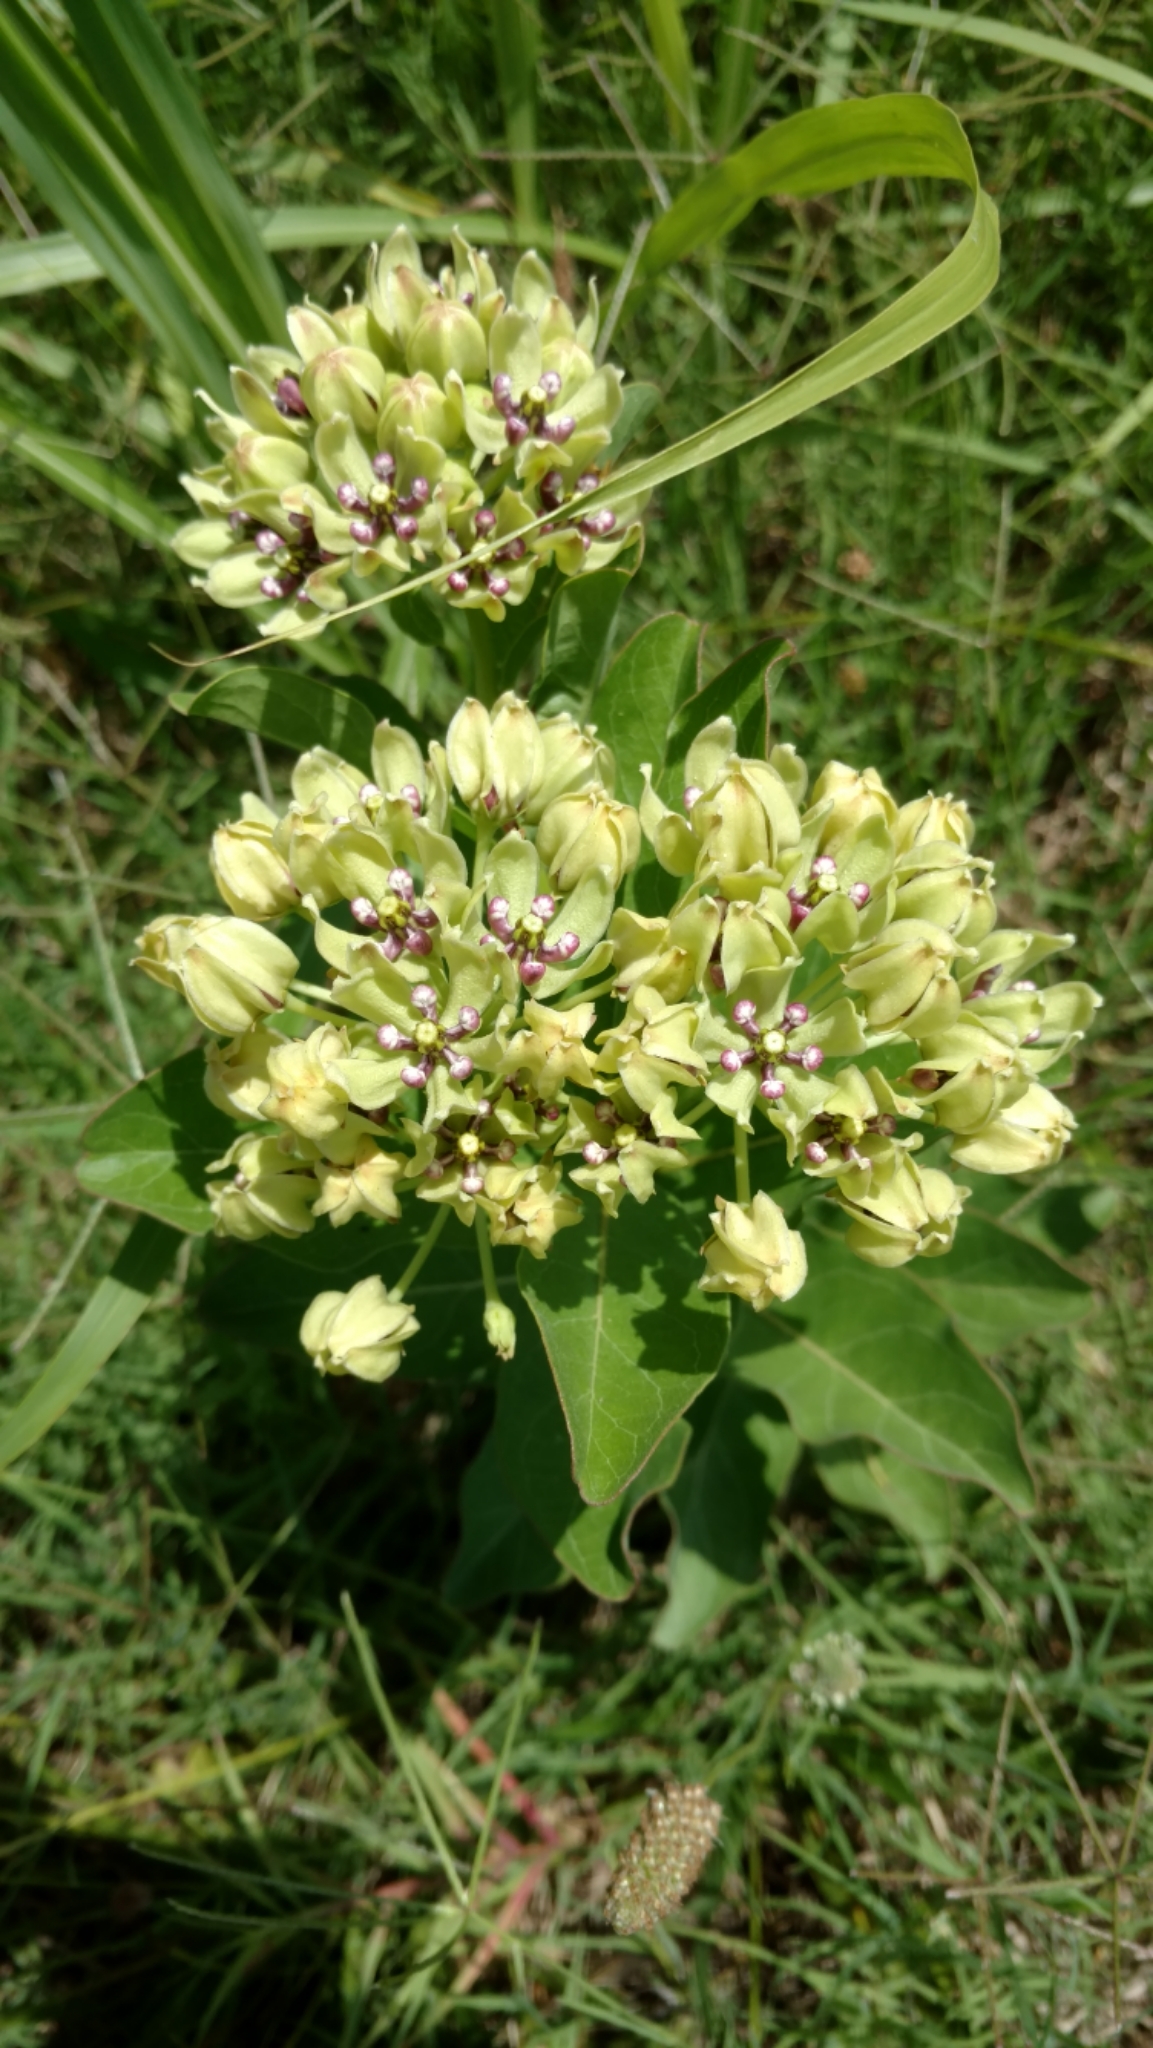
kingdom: Plantae
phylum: Tracheophyta
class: Magnoliopsida
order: Gentianales
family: Apocynaceae
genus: Asclepias
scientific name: Asclepias viridis
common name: Antelope-horns
